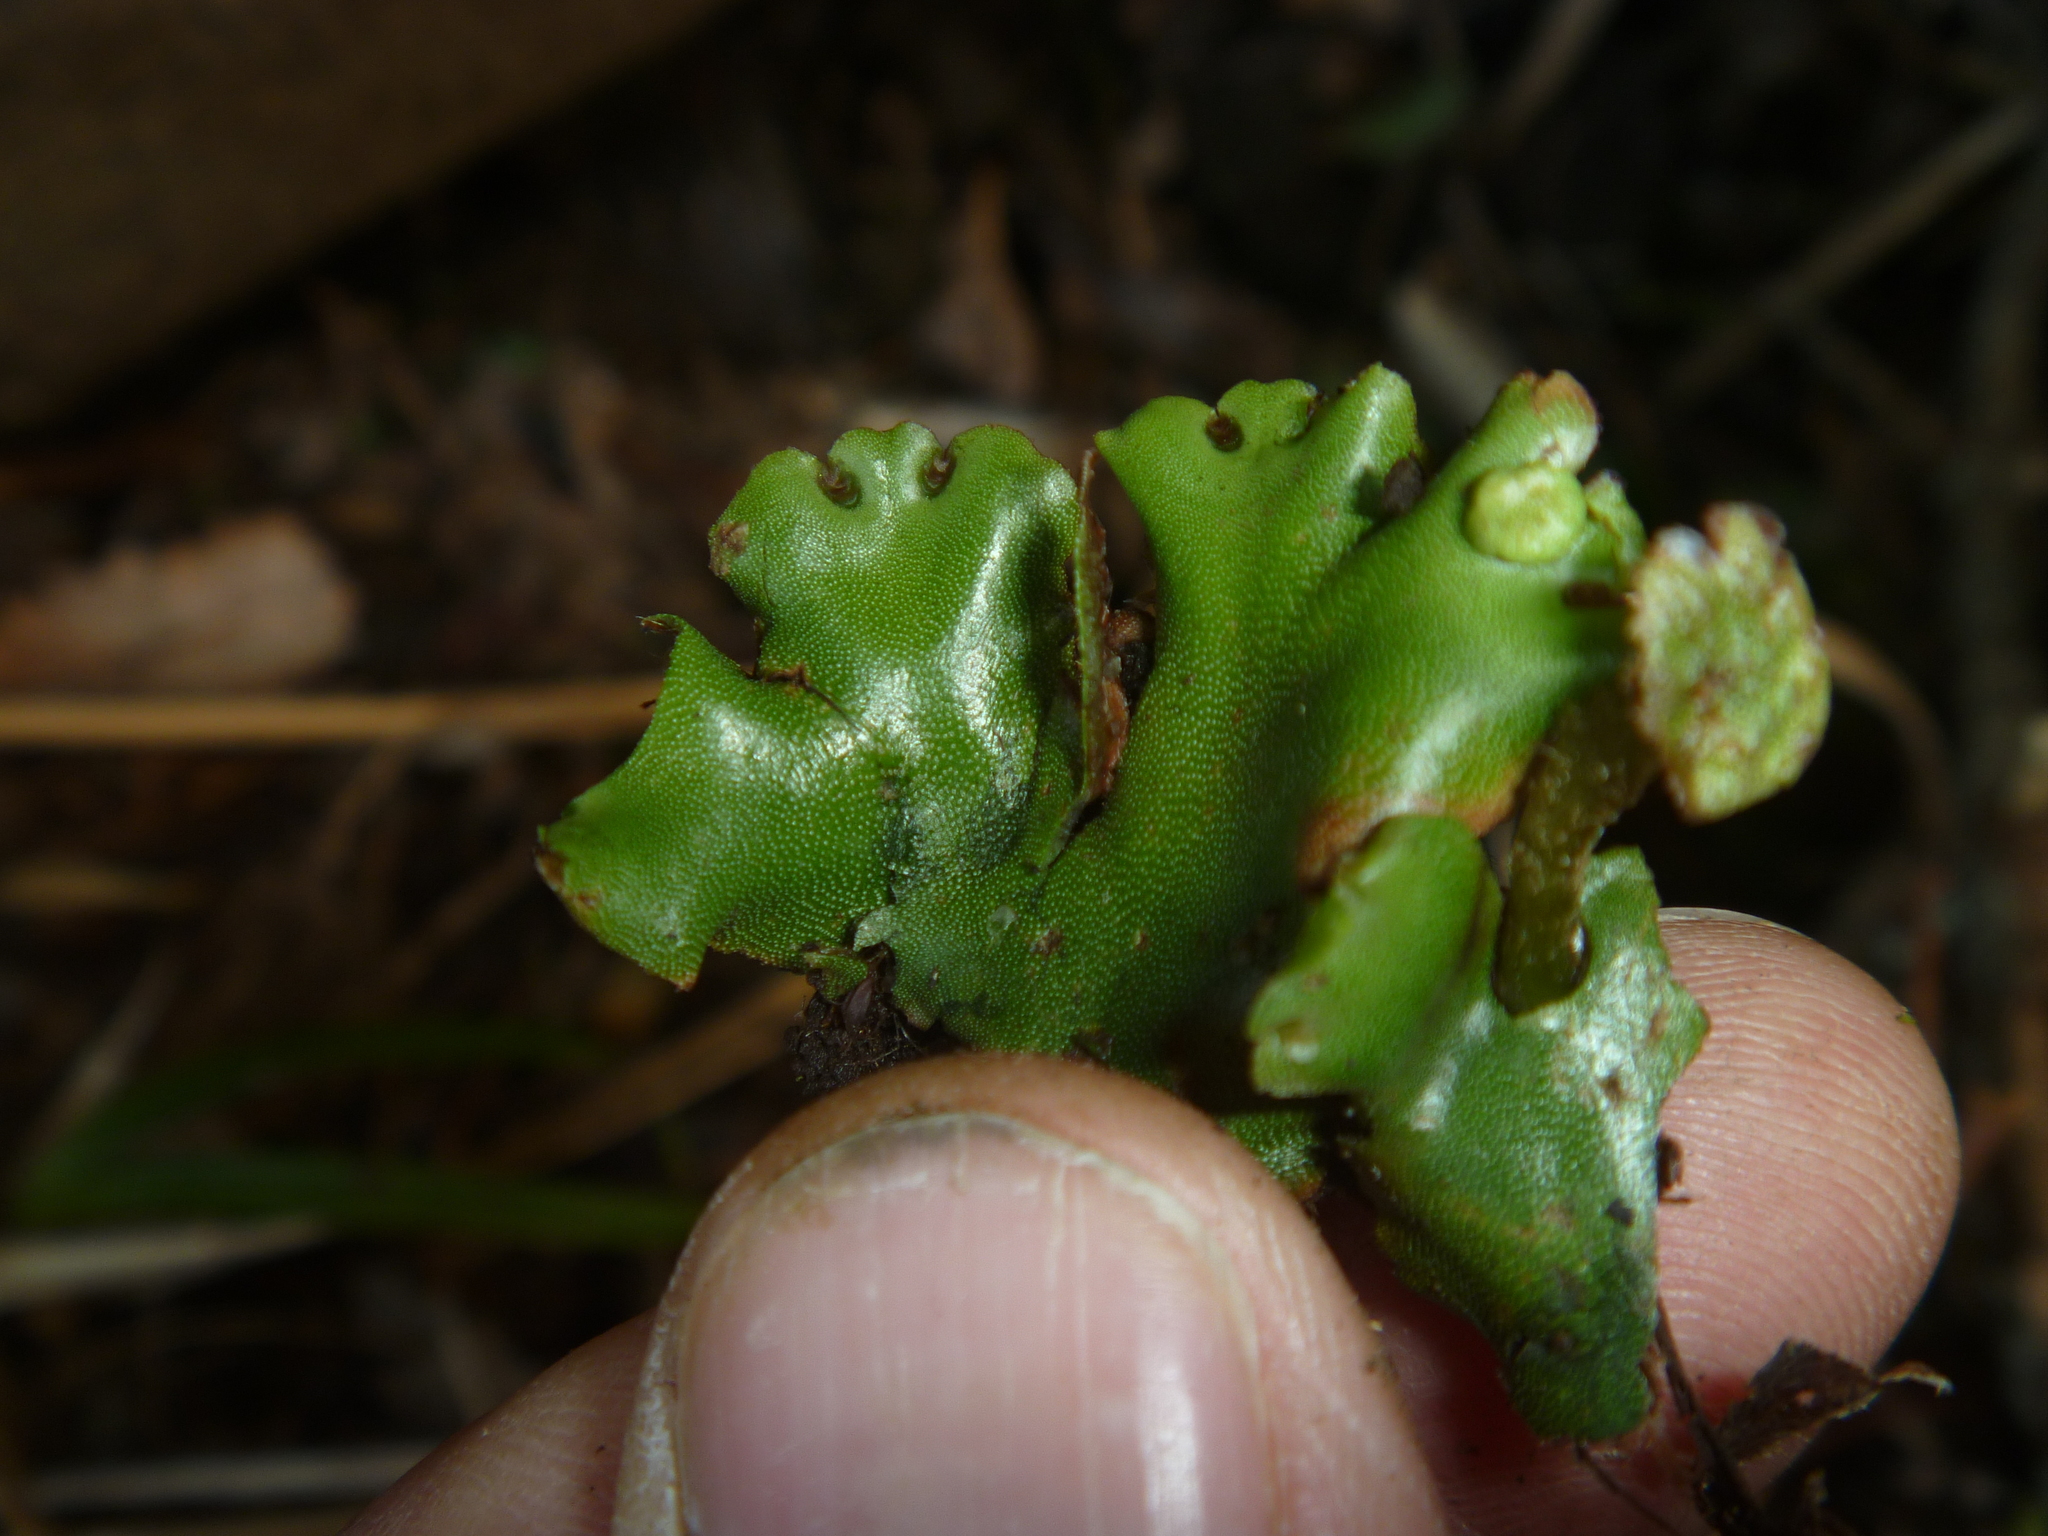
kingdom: Plantae
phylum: Marchantiophyta
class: Marchantiopsida
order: Marchantiales
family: Marchantiaceae
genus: Marchantia
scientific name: Marchantia berteroana
